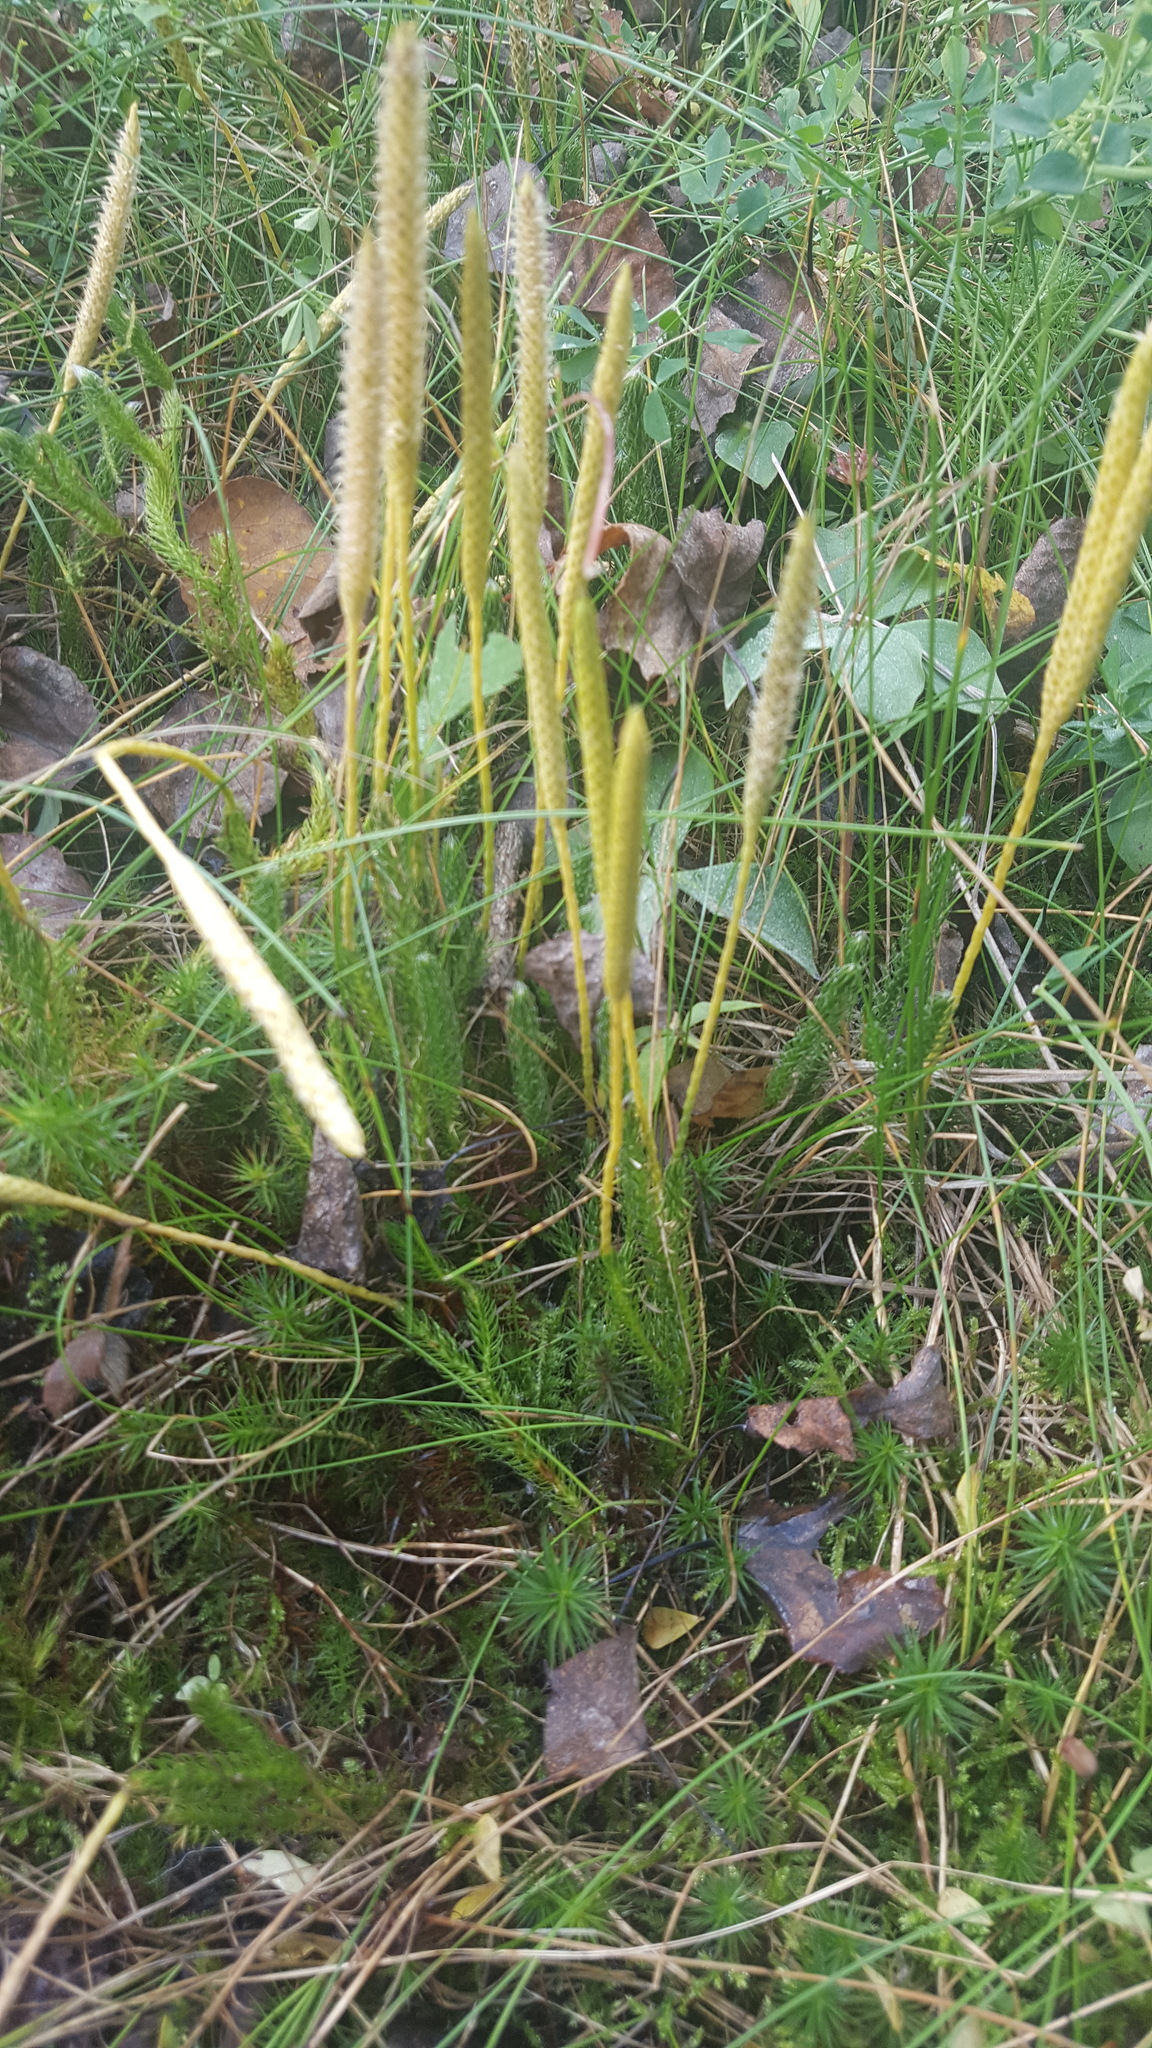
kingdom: Plantae
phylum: Tracheophyta
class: Lycopodiopsida
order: Lycopodiales
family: Lycopodiaceae
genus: Lycopodium
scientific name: Lycopodium lagopus
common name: One-cone clubmoss
